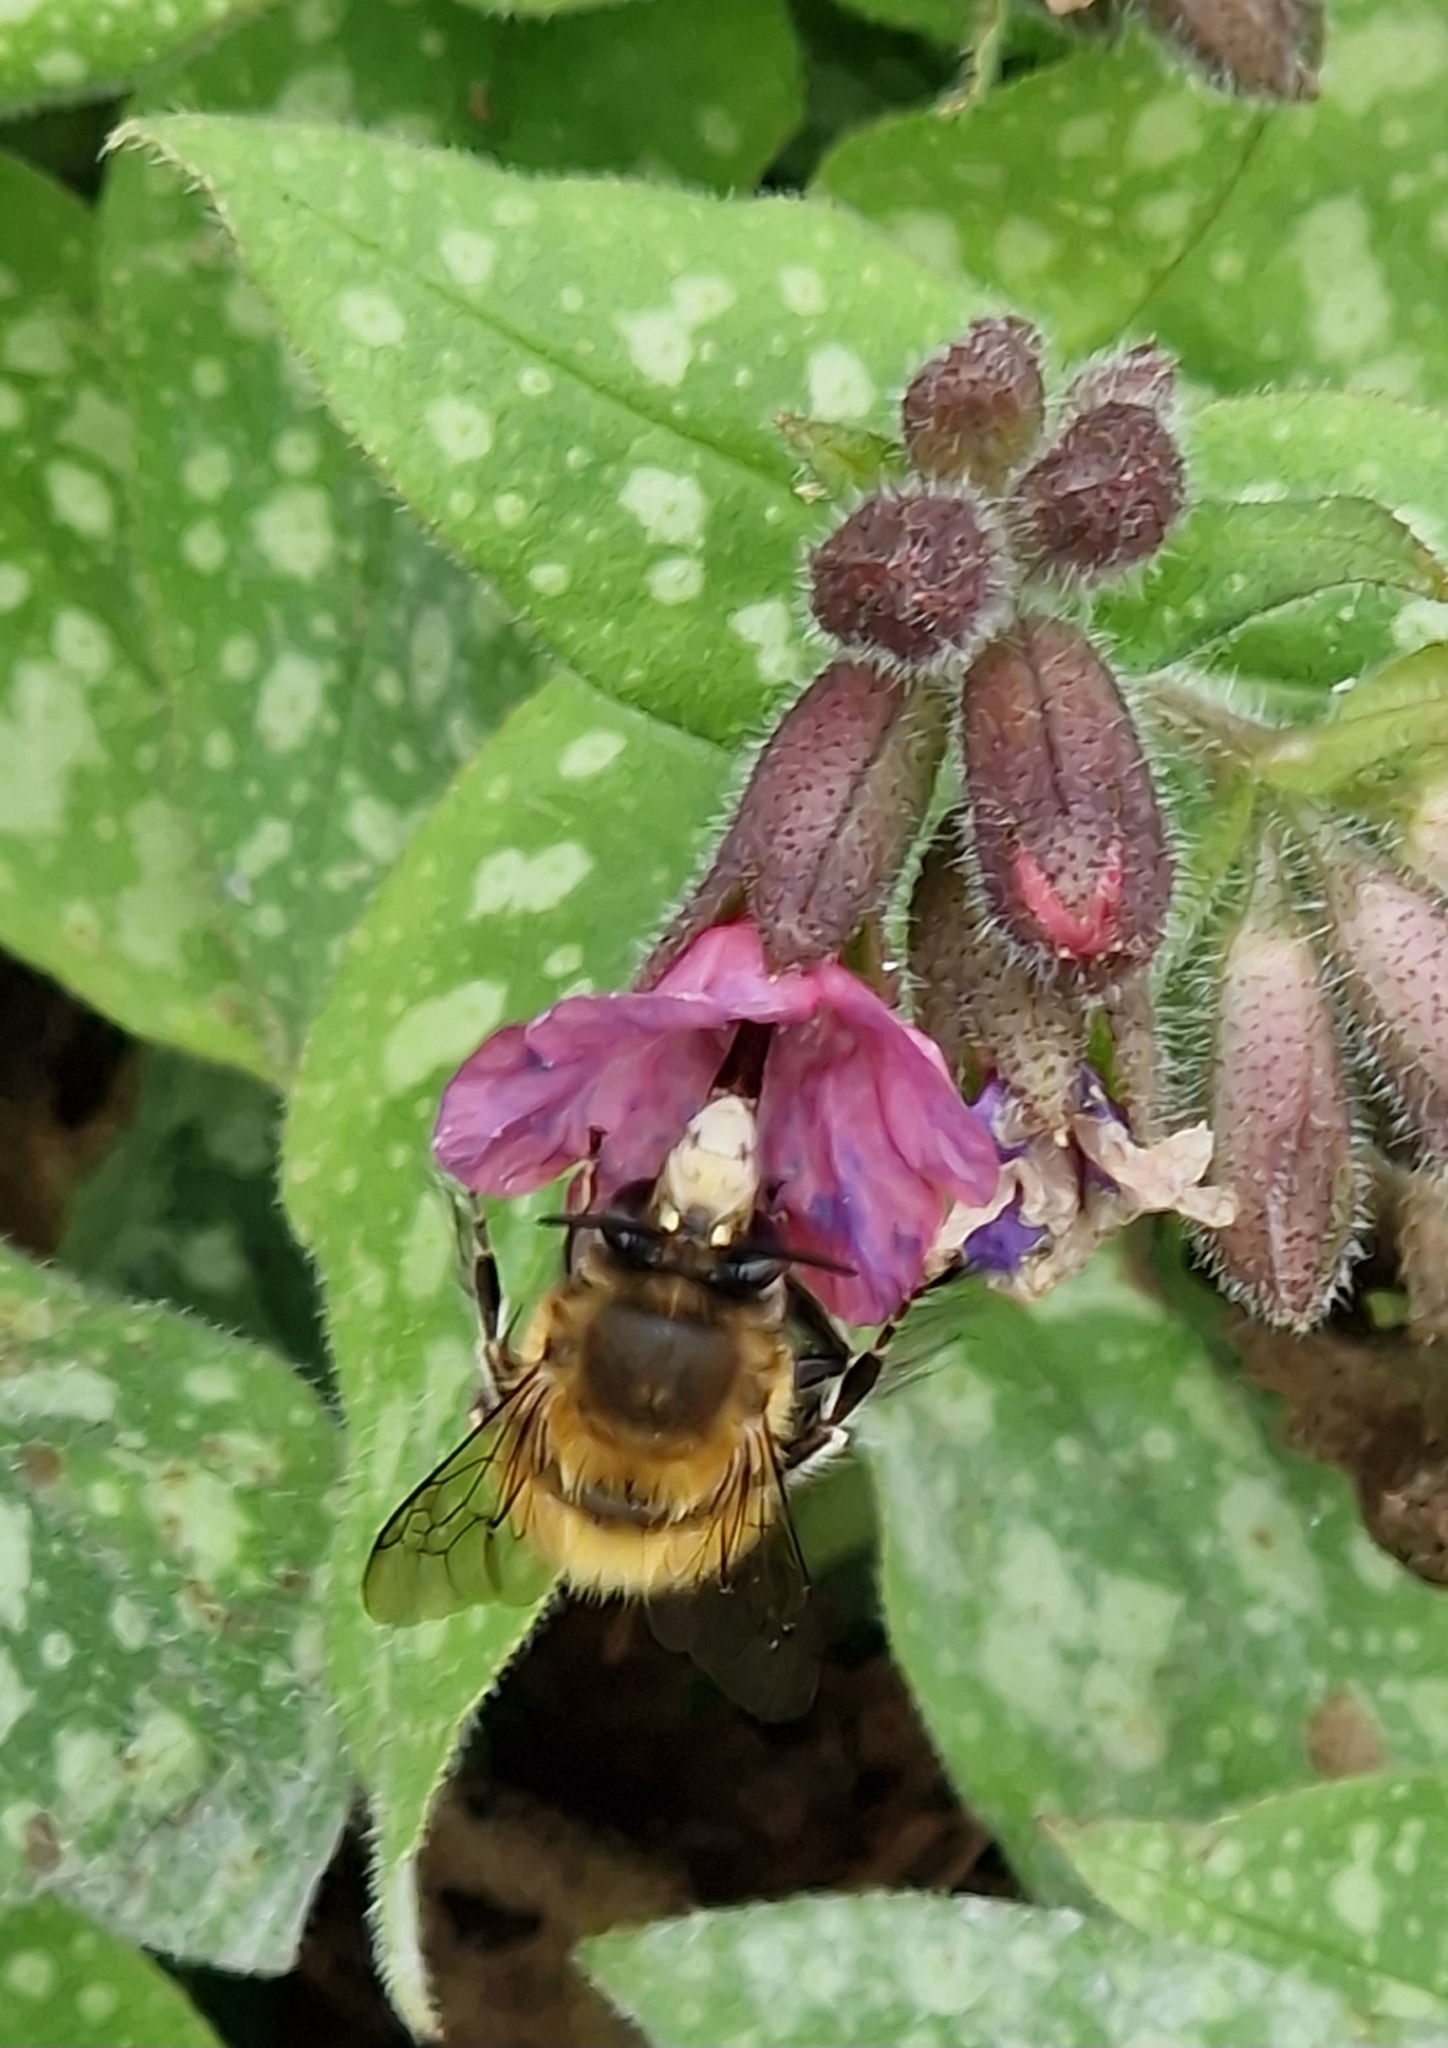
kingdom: Animalia
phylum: Arthropoda
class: Insecta
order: Hymenoptera
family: Apidae
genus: Anthophora
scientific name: Anthophora plumipes
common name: Hairy-footed flower bee
